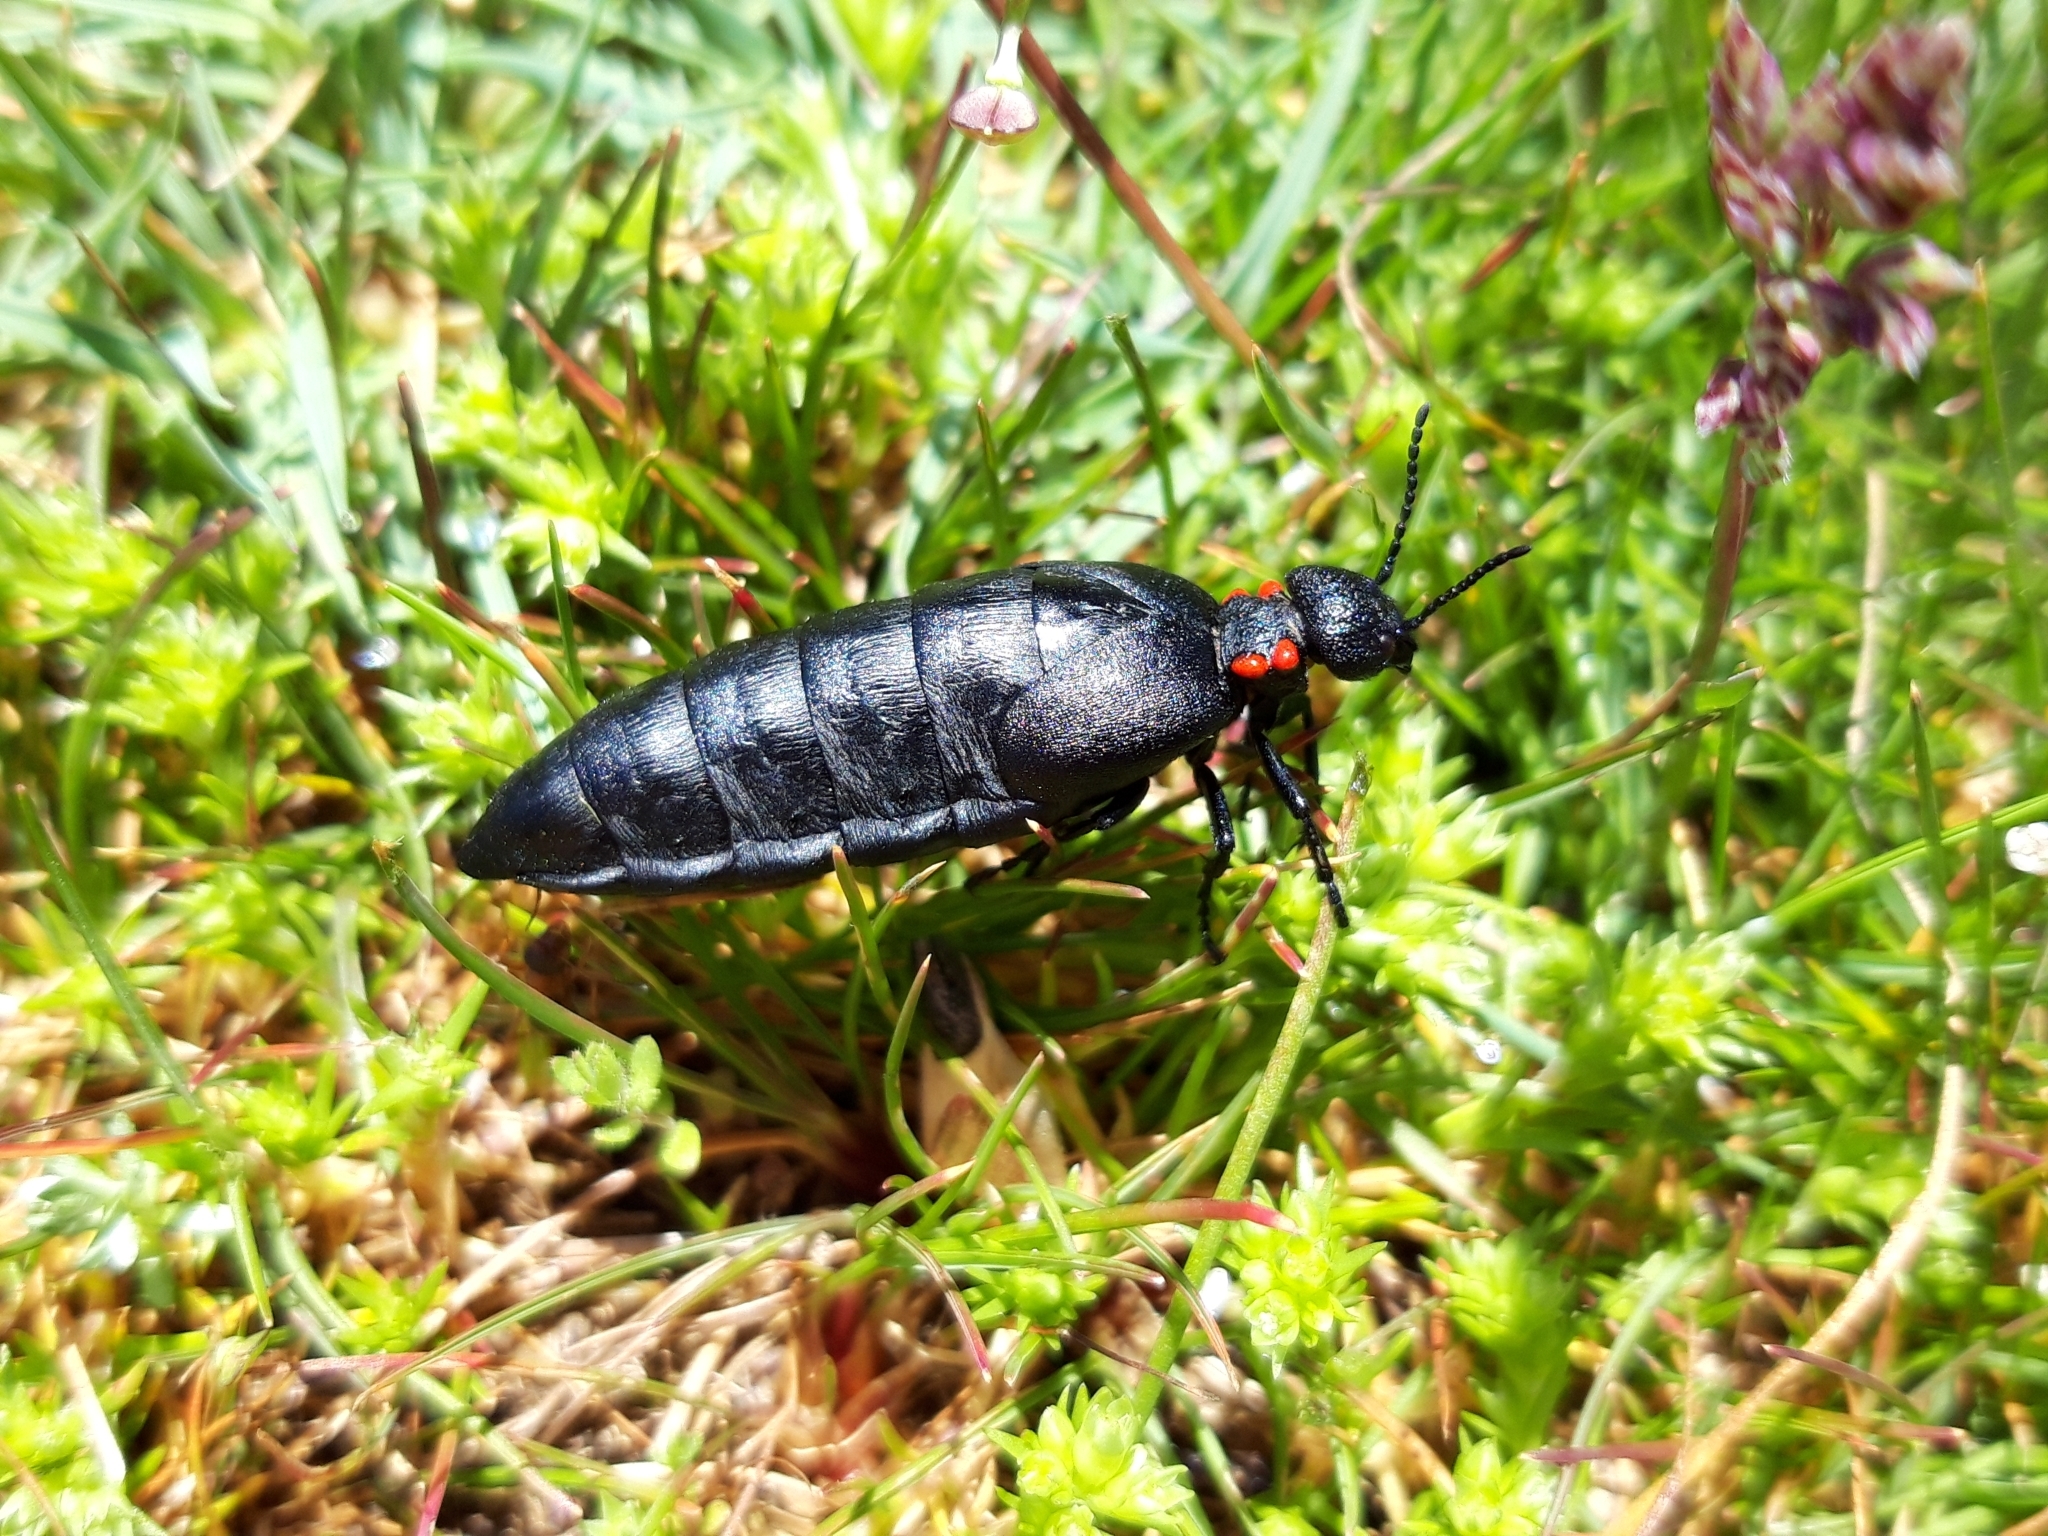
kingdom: Animalia
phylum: Arthropoda
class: Insecta
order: Coleoptera
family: Meloidae
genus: Physomeloe
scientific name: Physomeloe corallifer
